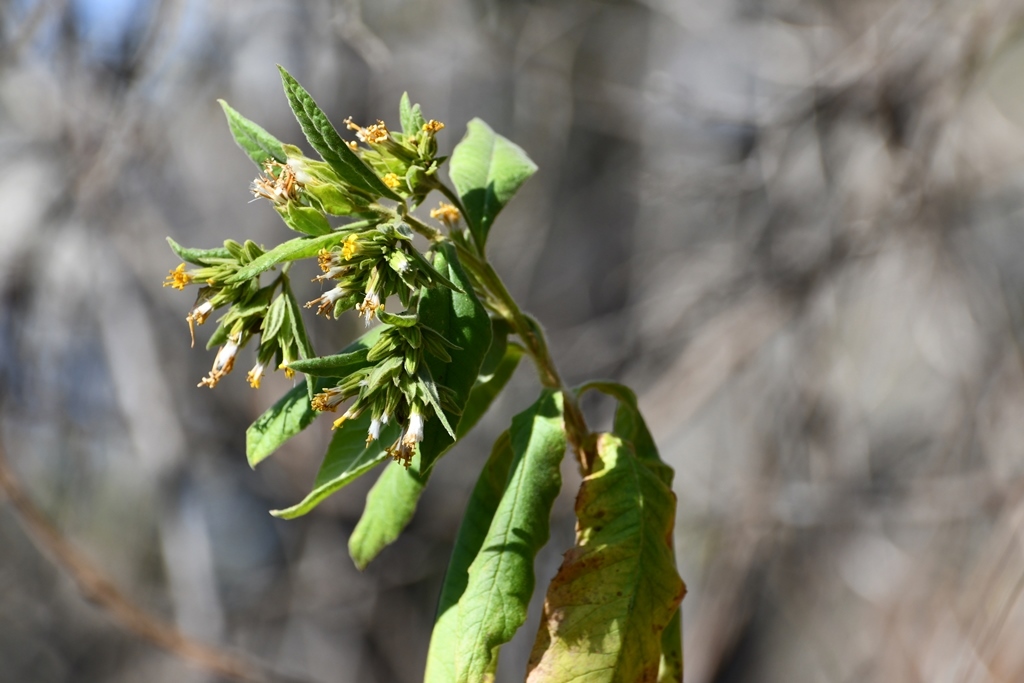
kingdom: Plantae
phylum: Tracheophyta
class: Magnoliopsida
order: Asterales
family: Asteraceae
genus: Trixis
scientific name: Trixis chiapensis
